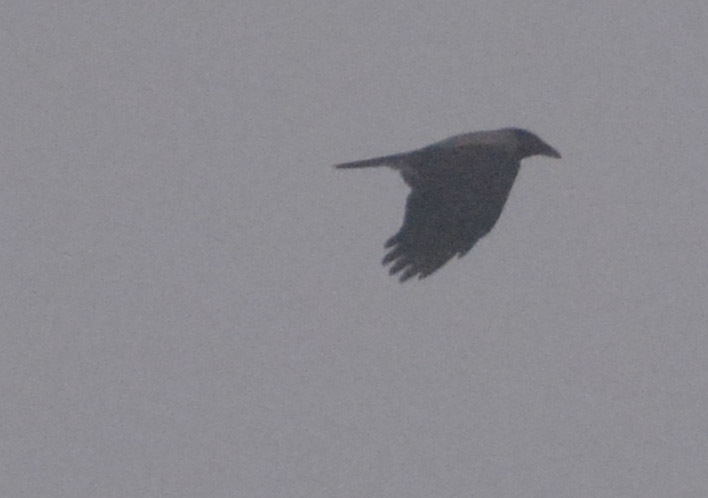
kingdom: Animalia
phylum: Chordata
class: Aves
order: Passeriformes
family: Corvidae
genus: Corvus
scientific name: Corvus cornix
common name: Hooded crow
